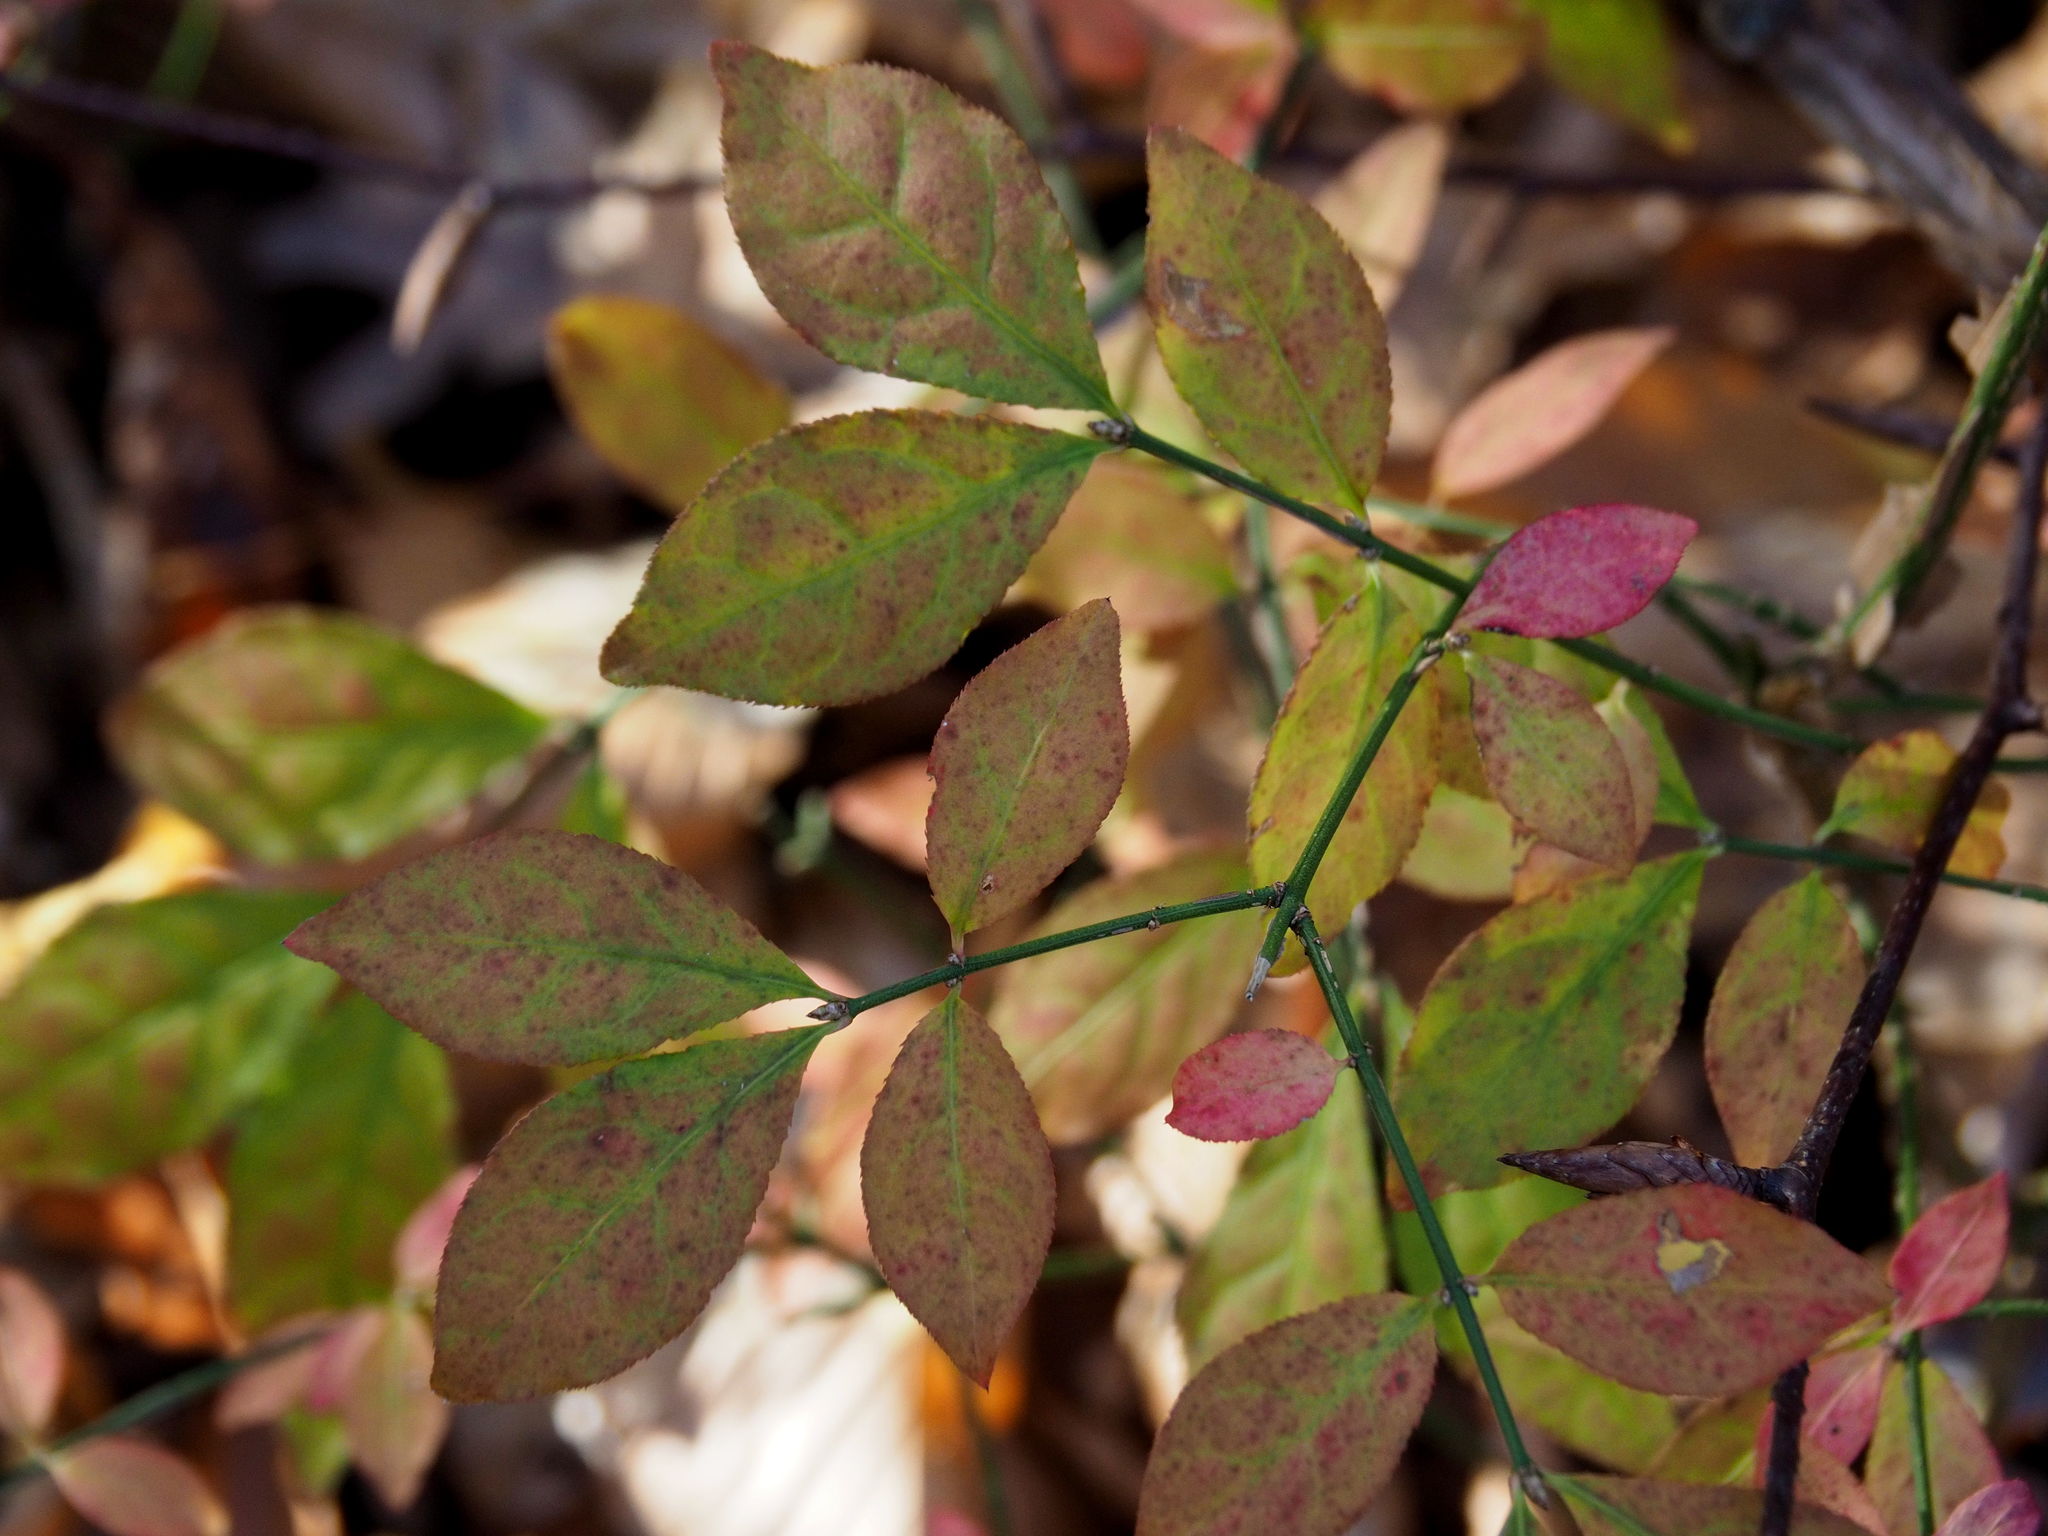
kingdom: Plantae
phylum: Tracheophyta
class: Magnoliopsida
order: Celastrales
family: Celastraceae
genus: Euonymus
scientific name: Euonymus alatus
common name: Winged euonymus
